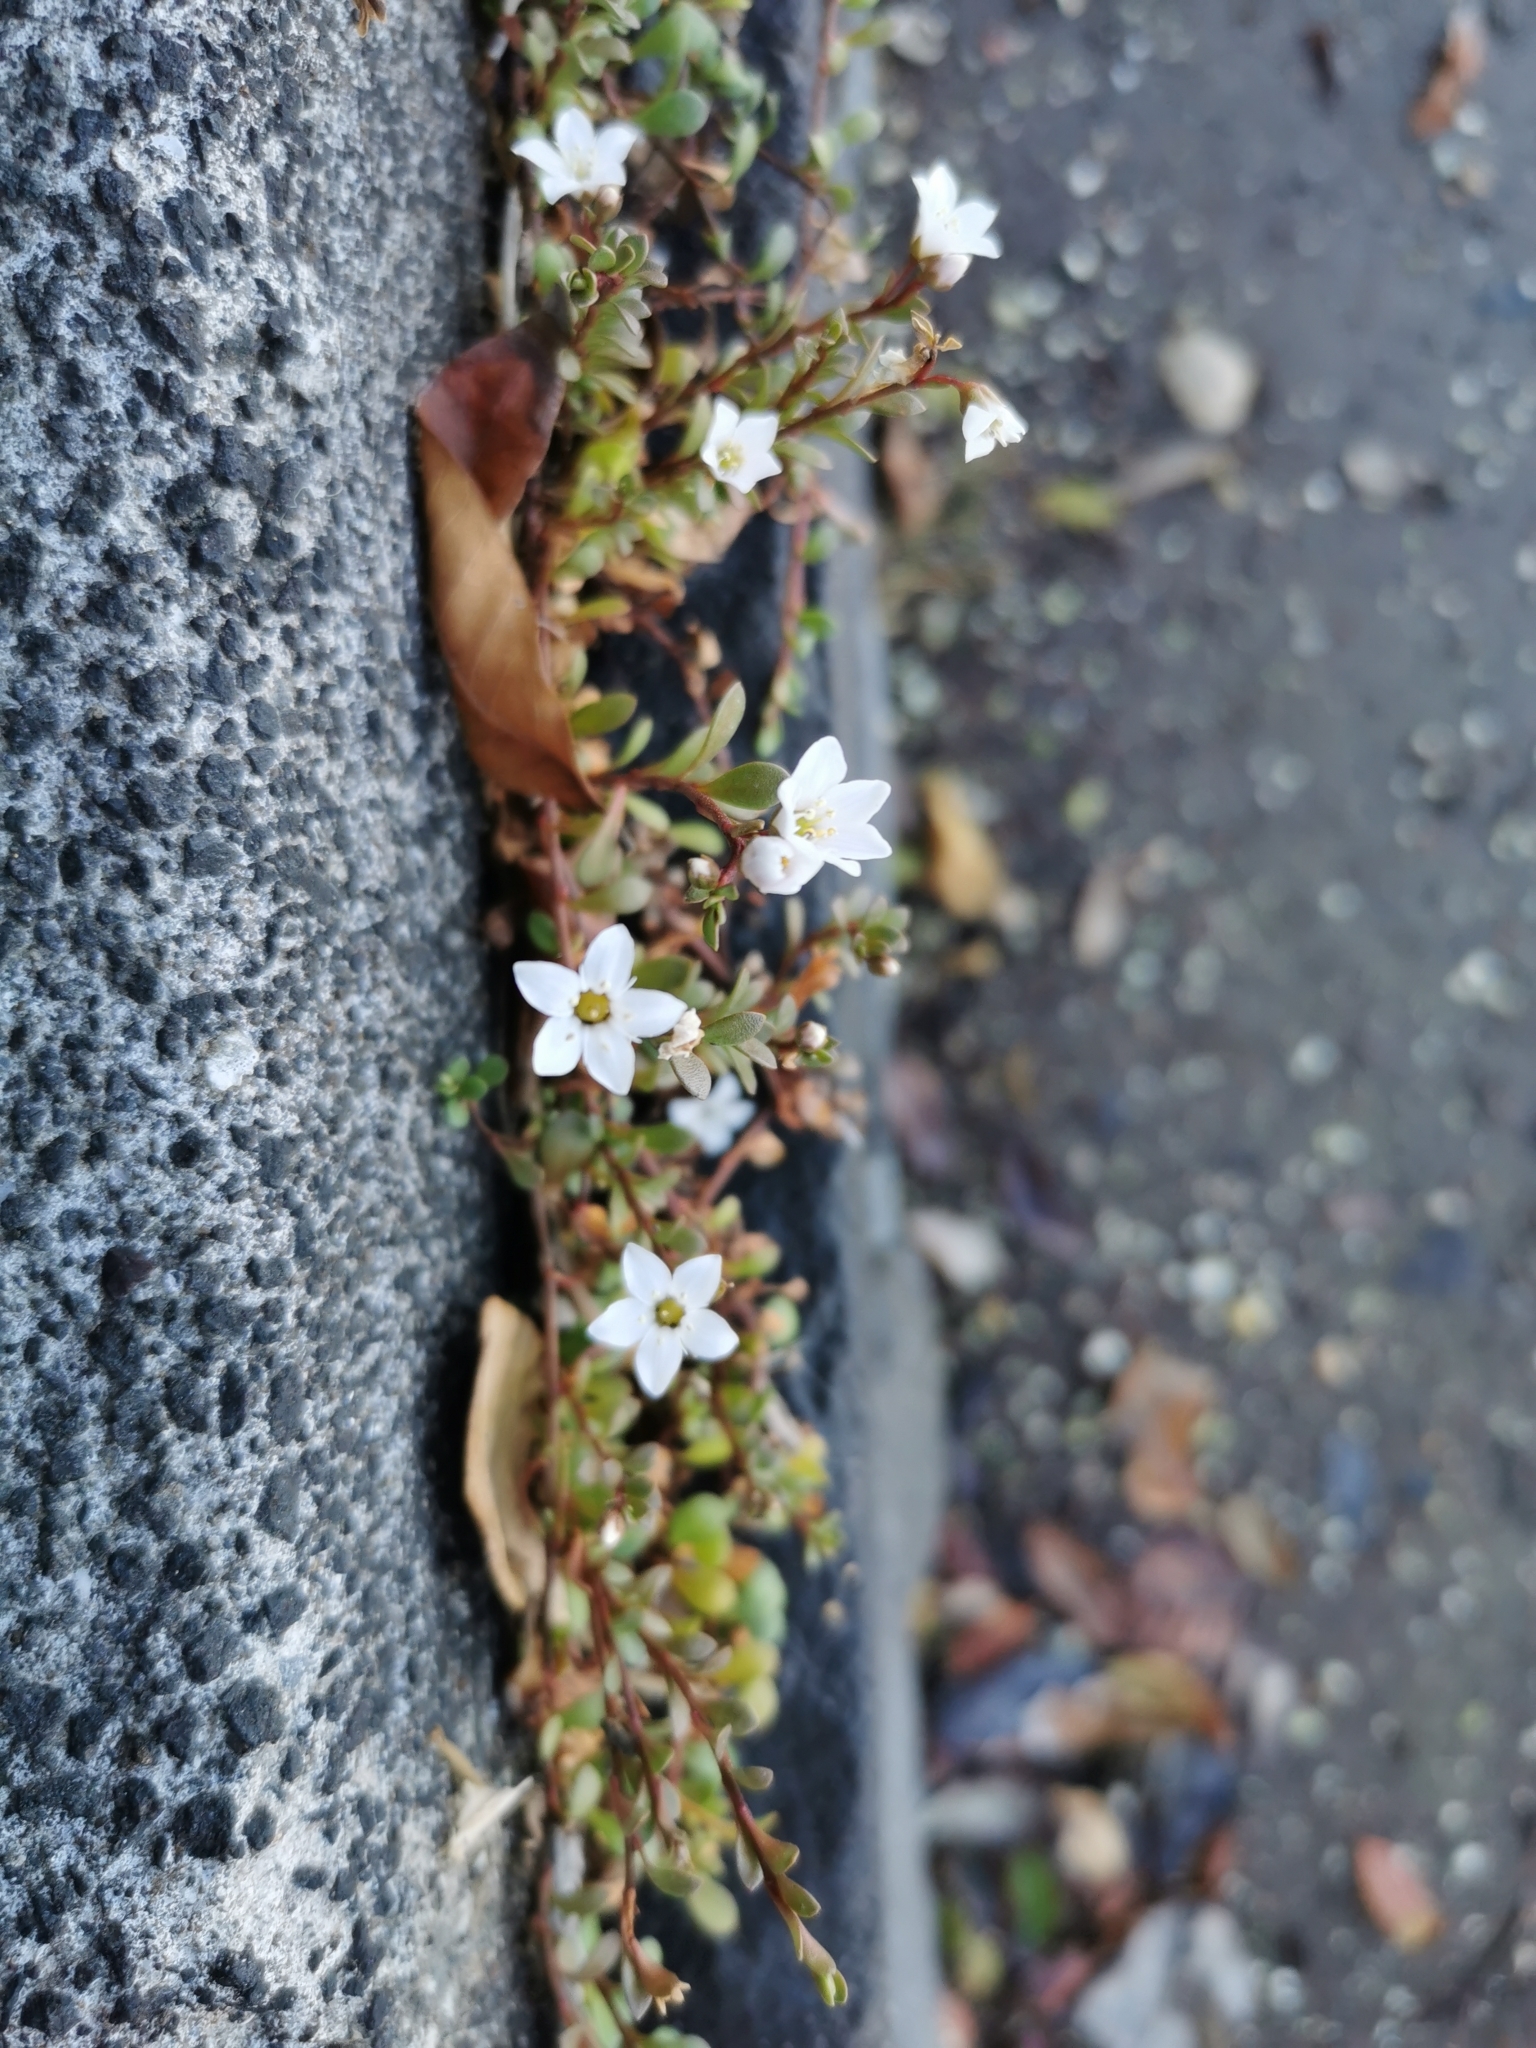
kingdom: Plantae
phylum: Tracheophyta
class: Magnoliopsida
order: Ericales
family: Primulaceae
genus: Samolus
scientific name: Samolus repens
